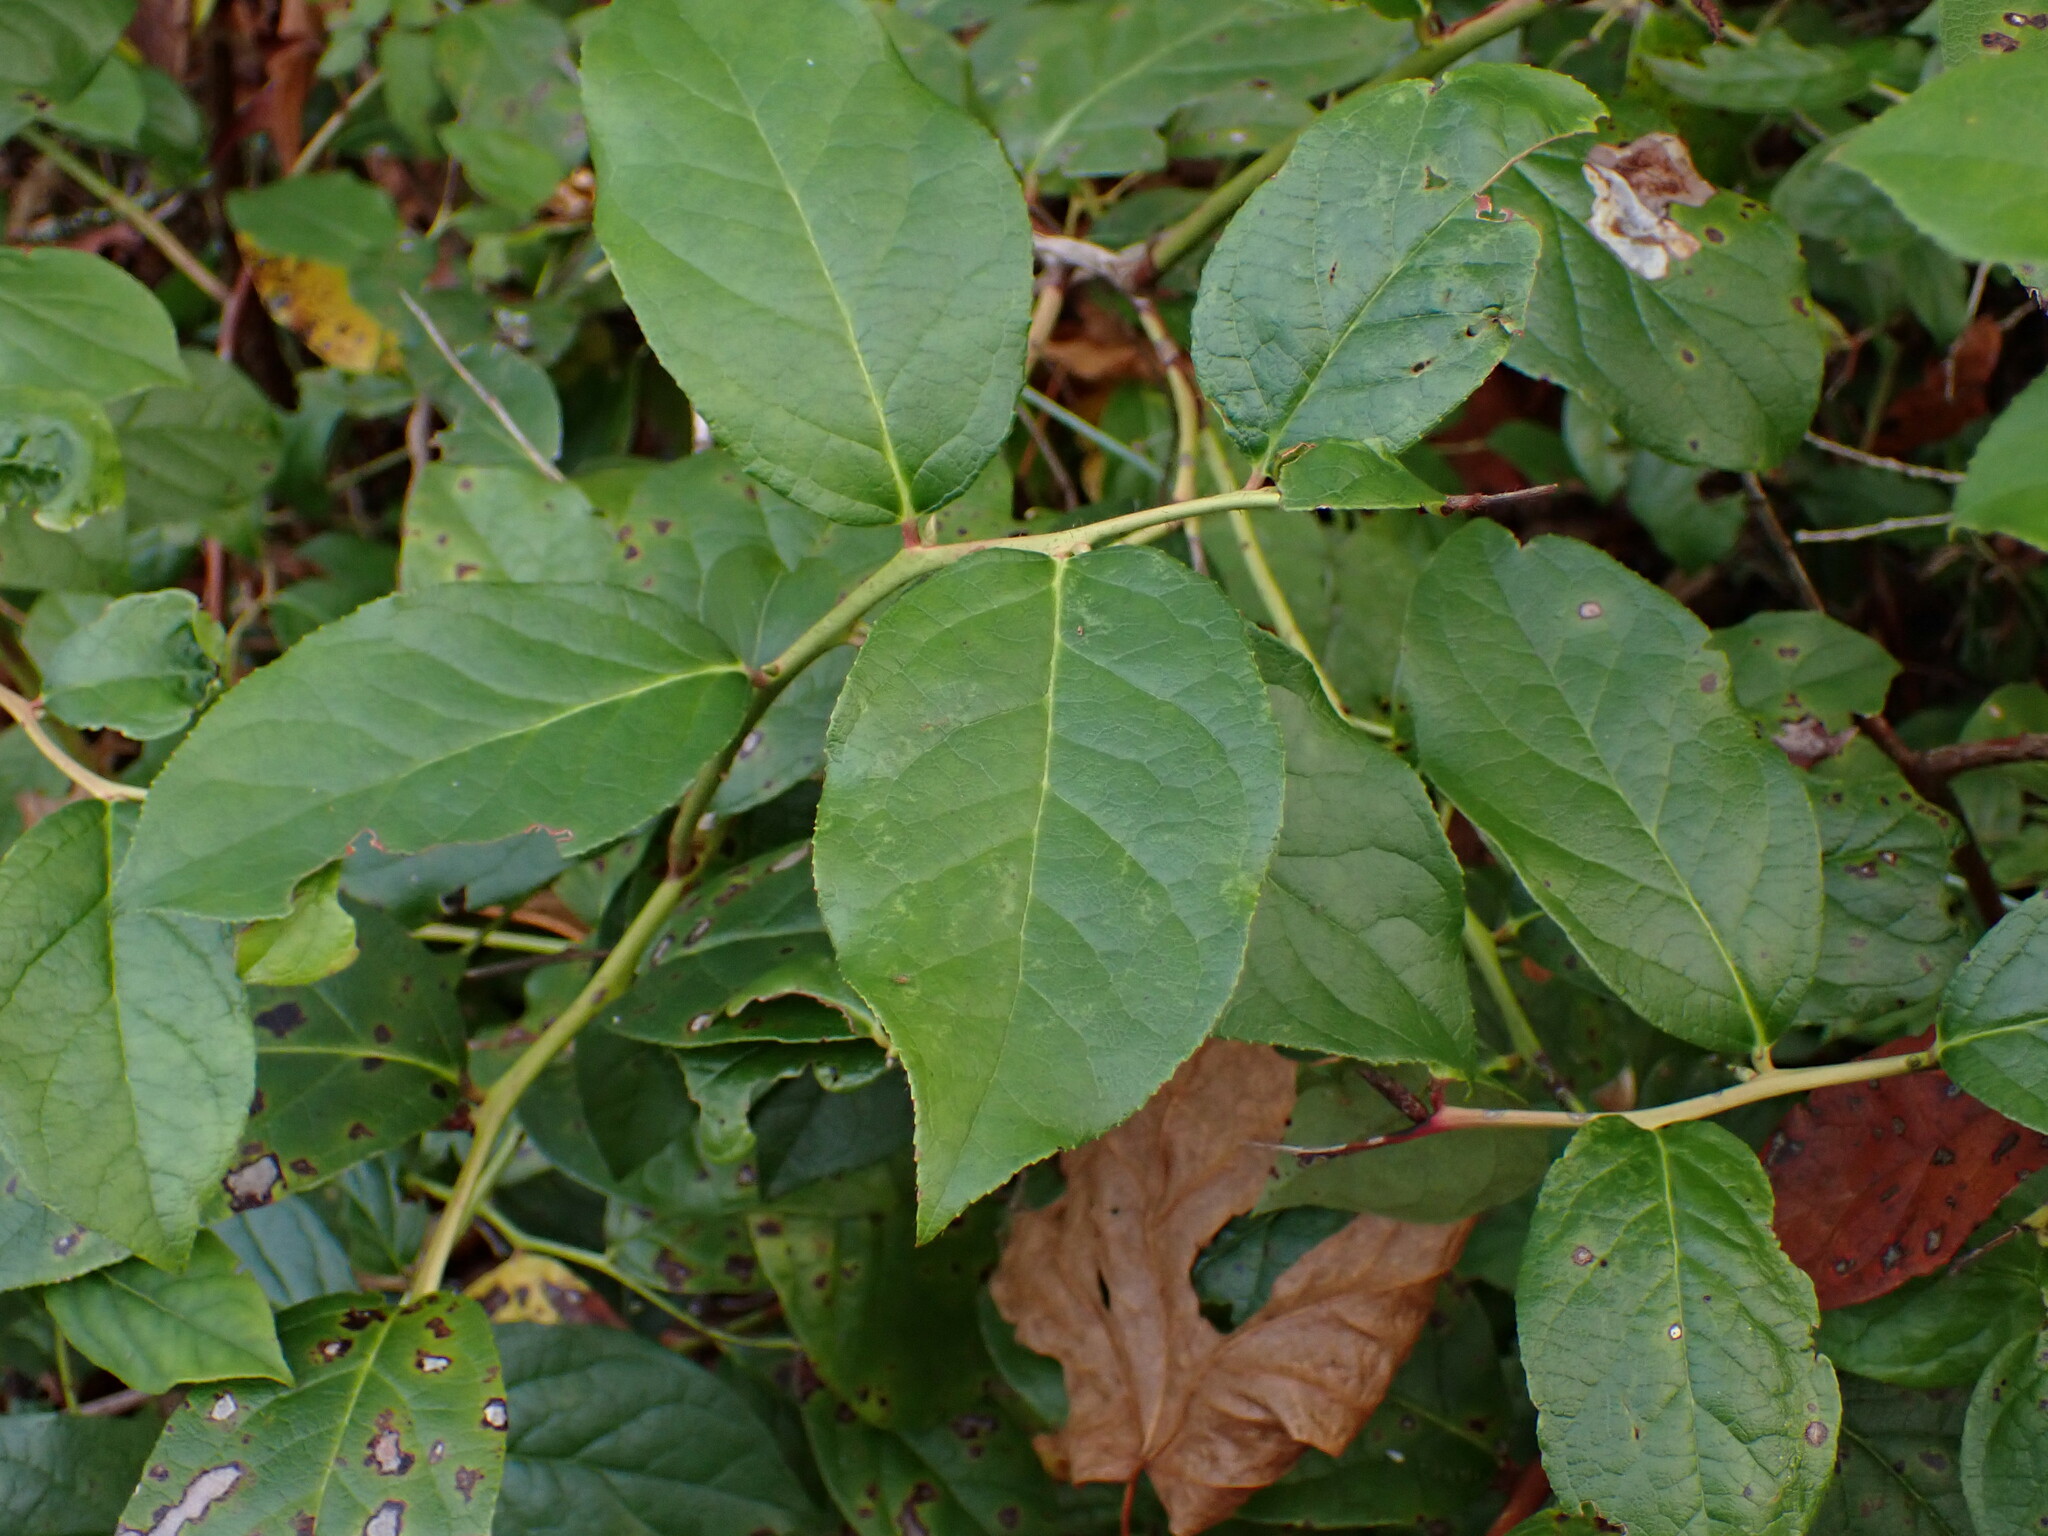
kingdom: Plantae
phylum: Tracheophyta
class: Magnoliopsida
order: Ericales
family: Ericaceae
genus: Gaultheria
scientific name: Gaultheria shallon
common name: Shallon
